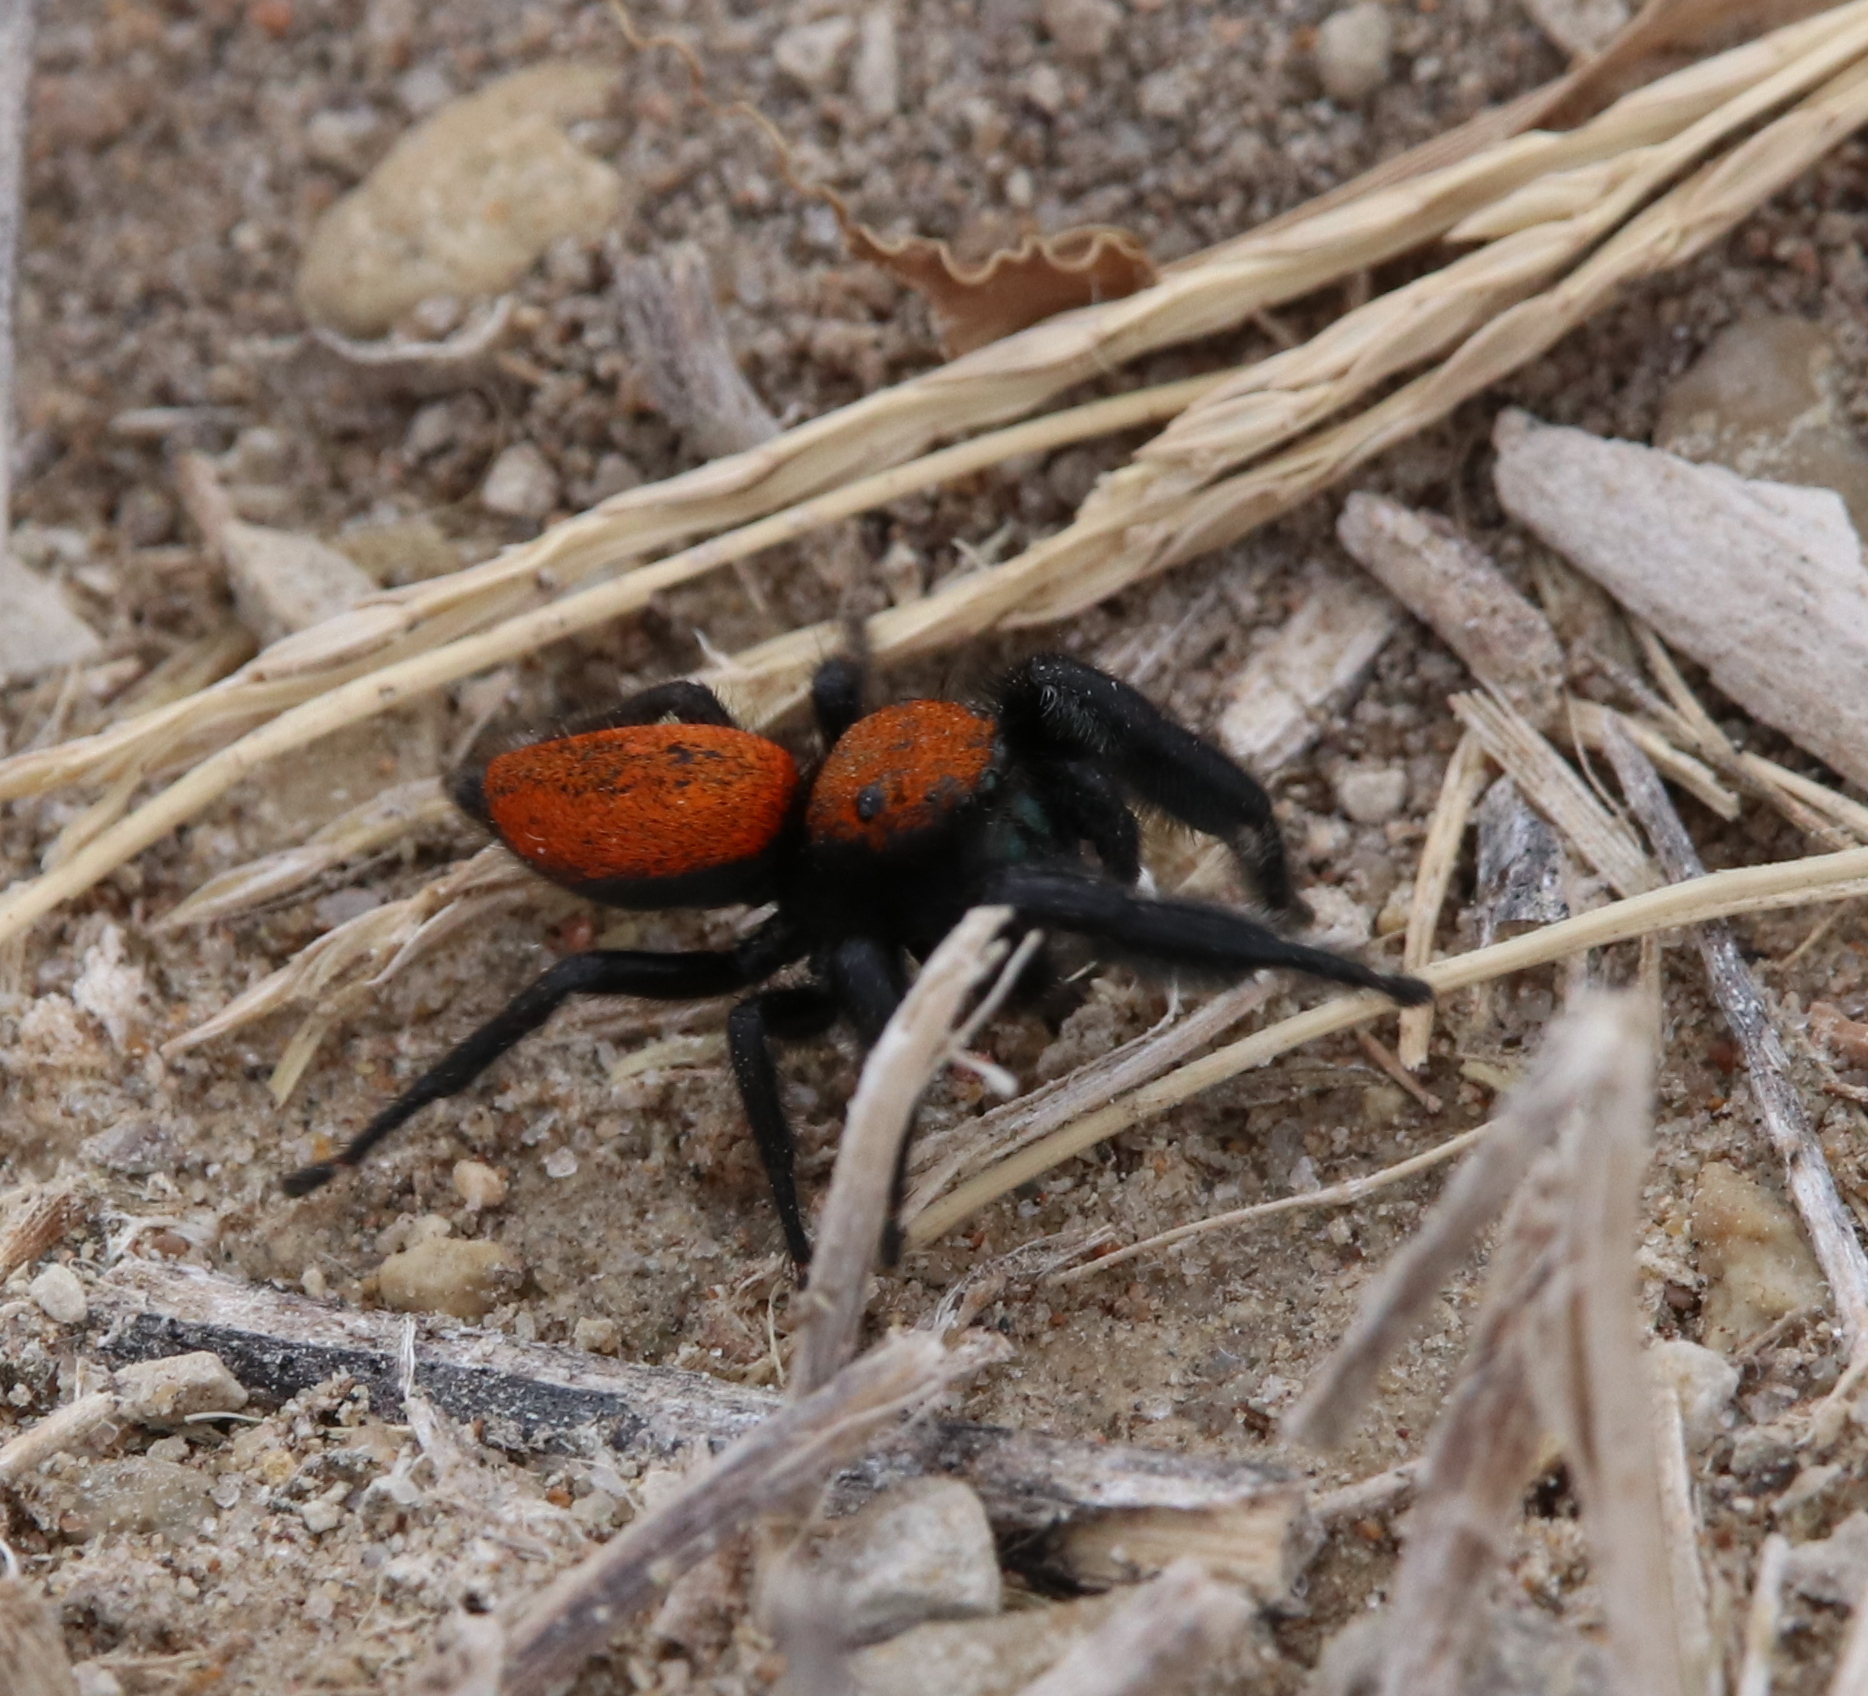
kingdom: Animalia
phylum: Arthropoda
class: Arachnida
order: Araneae
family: Salticidae
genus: Phidippus
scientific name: Phidippus apacheanus
